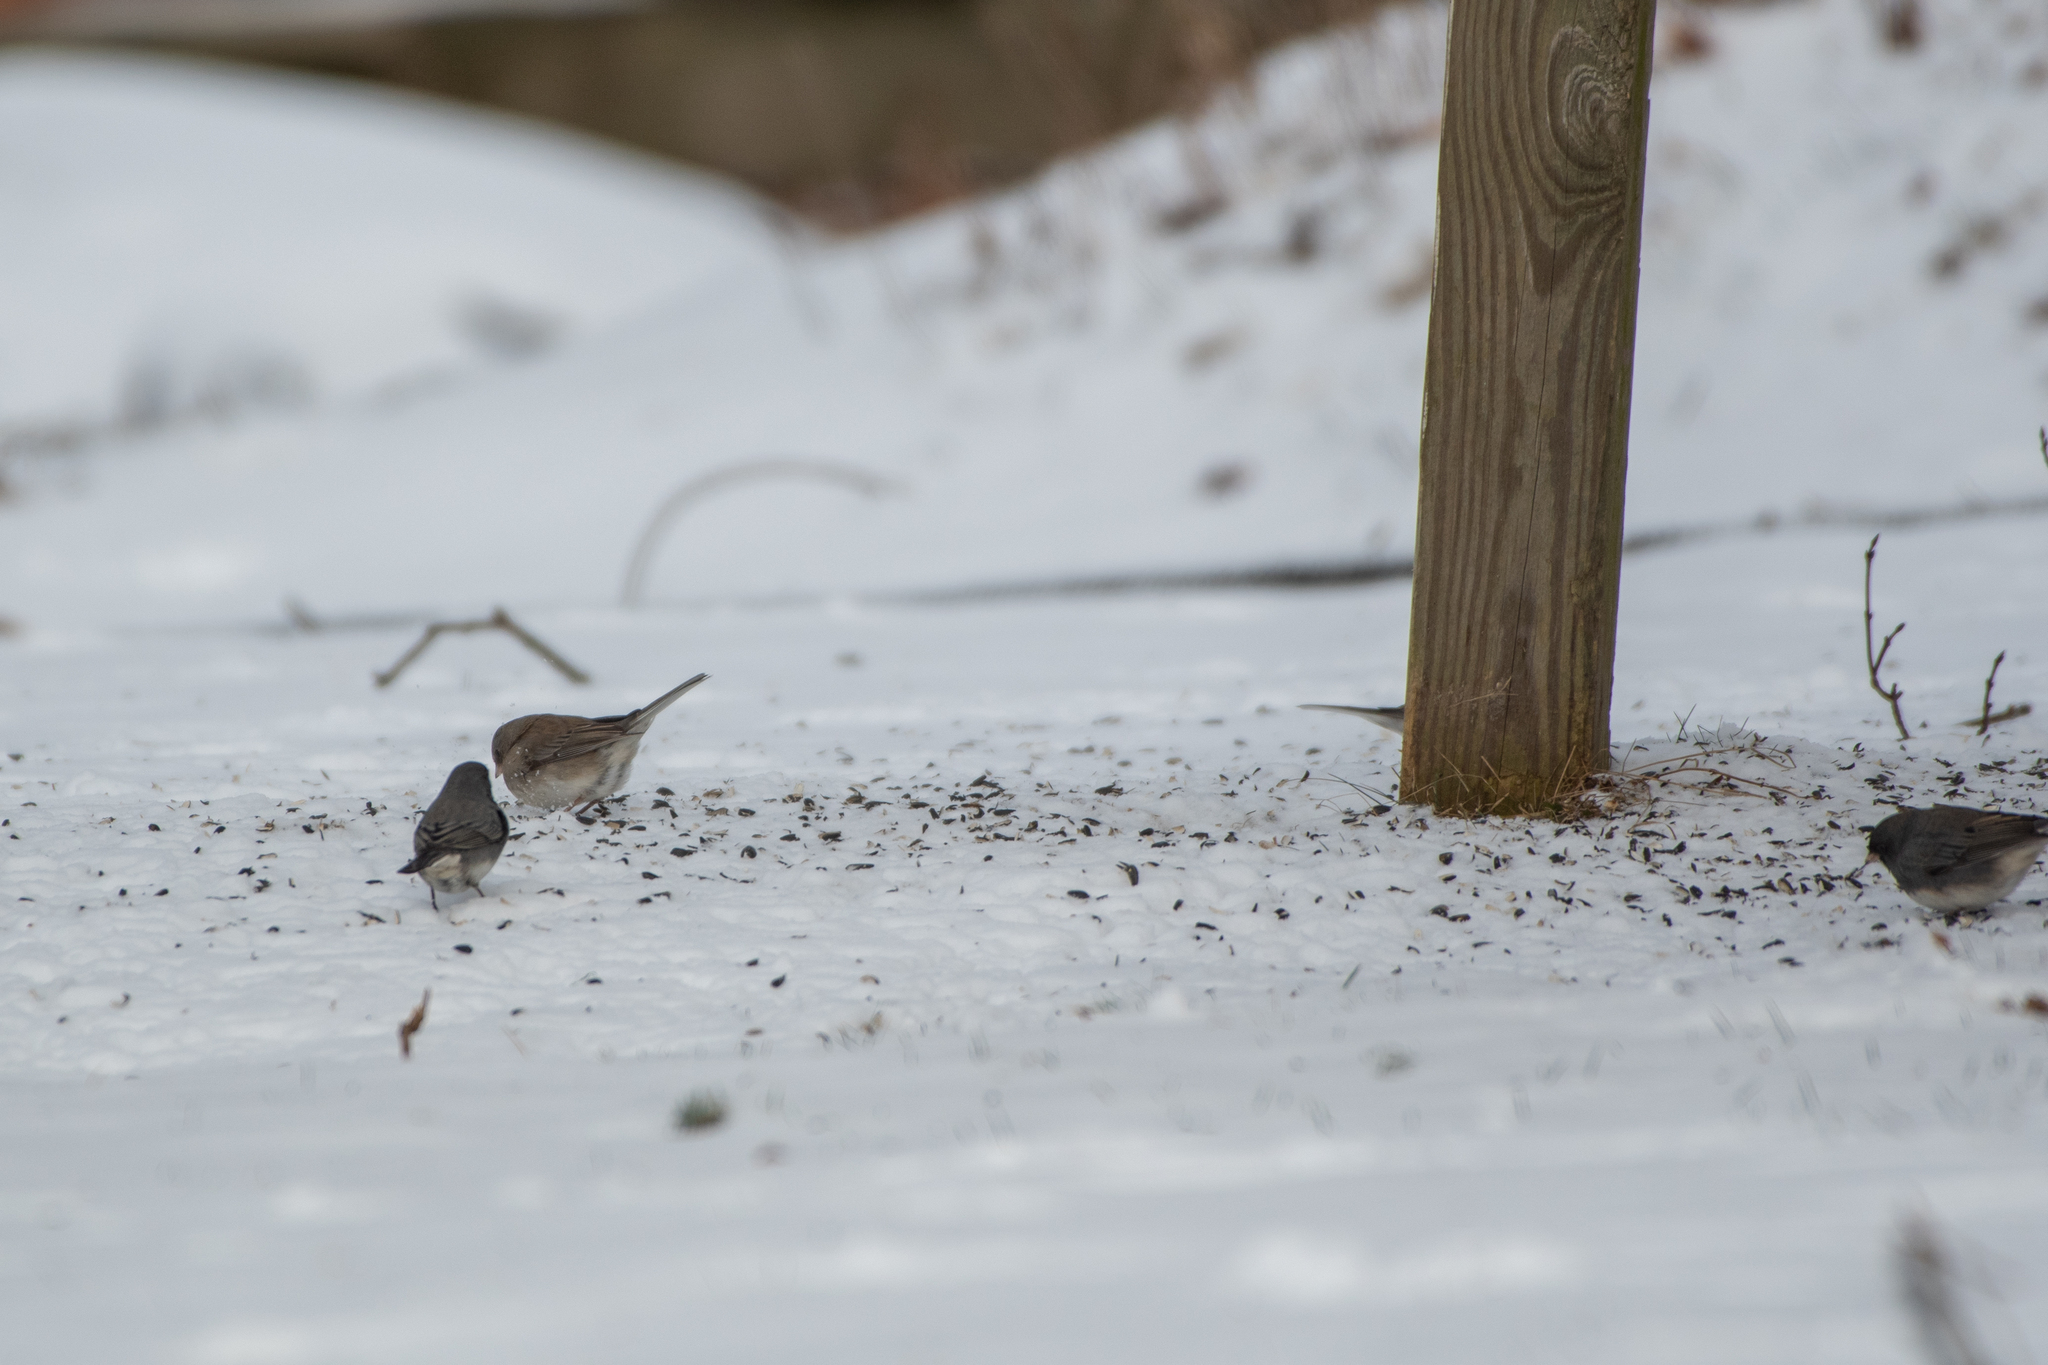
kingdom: Animalia
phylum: Chordata
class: Aves
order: Passeriformes
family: Passerellidae
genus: Junco
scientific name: Junco hyemalis
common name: Dark-eyed junco
